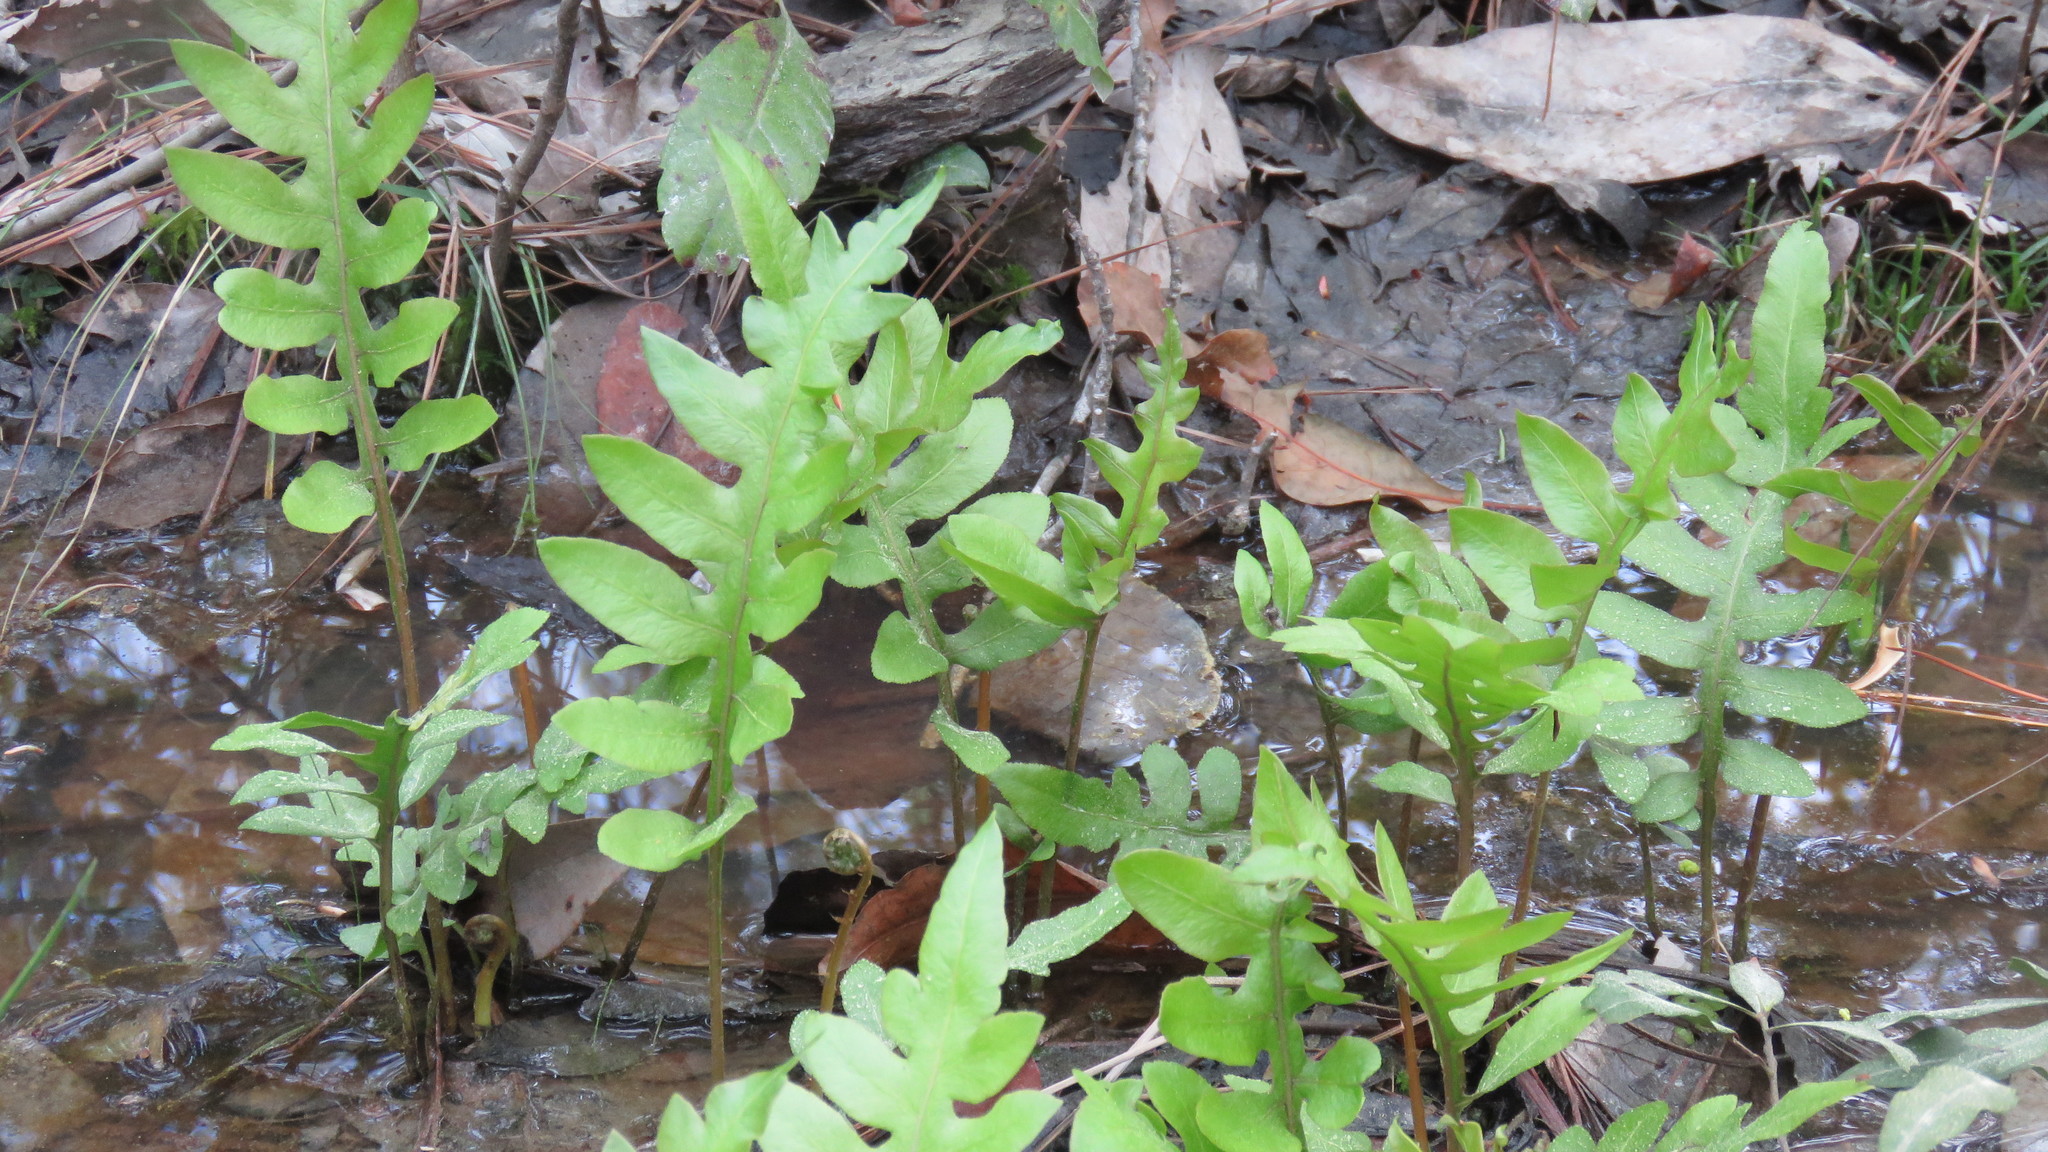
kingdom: Plantae
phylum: Tracheophyta
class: Polypodiopsida
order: Polypodiales
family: Blechnaceae
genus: Lorinseria
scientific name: Lorinseria areolata
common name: Dwarf chain fern
